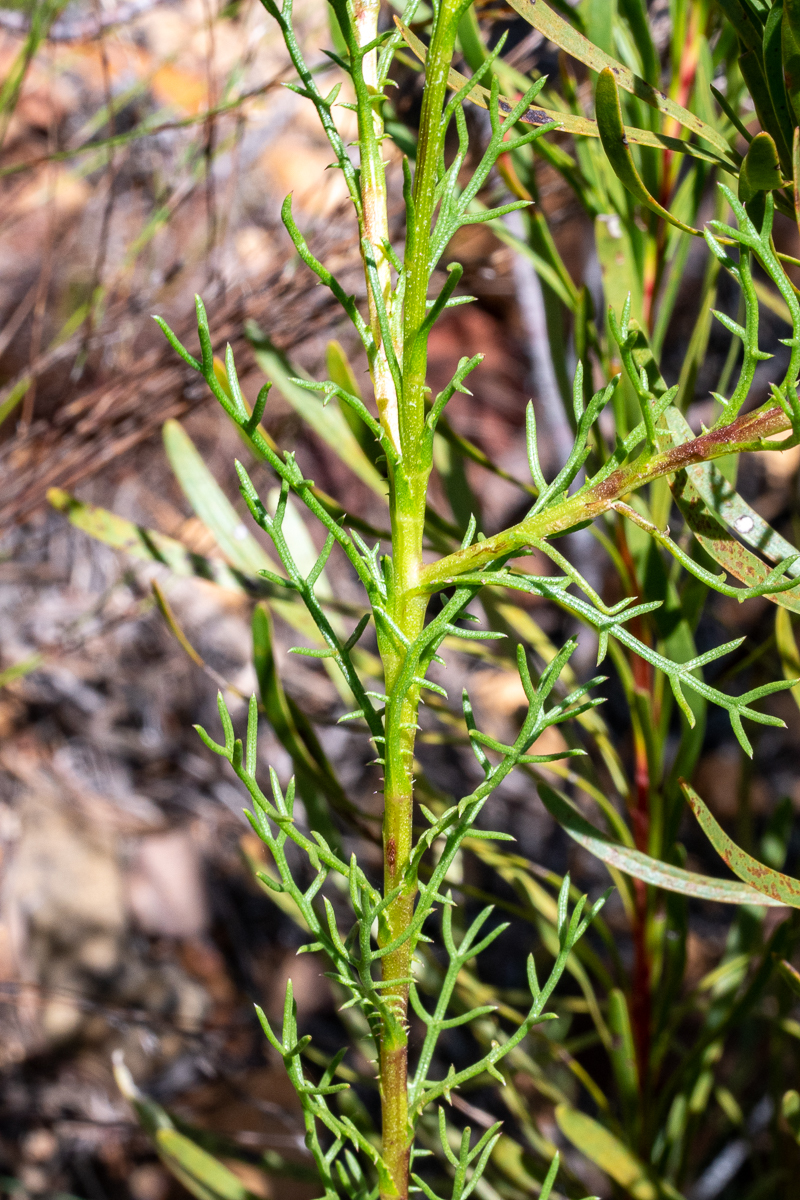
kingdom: Plantae
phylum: Tracheophyta
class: Magnoliopsida
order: Asterales
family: Asteraceae
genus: Ursinia
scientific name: Ursinia paleacea
